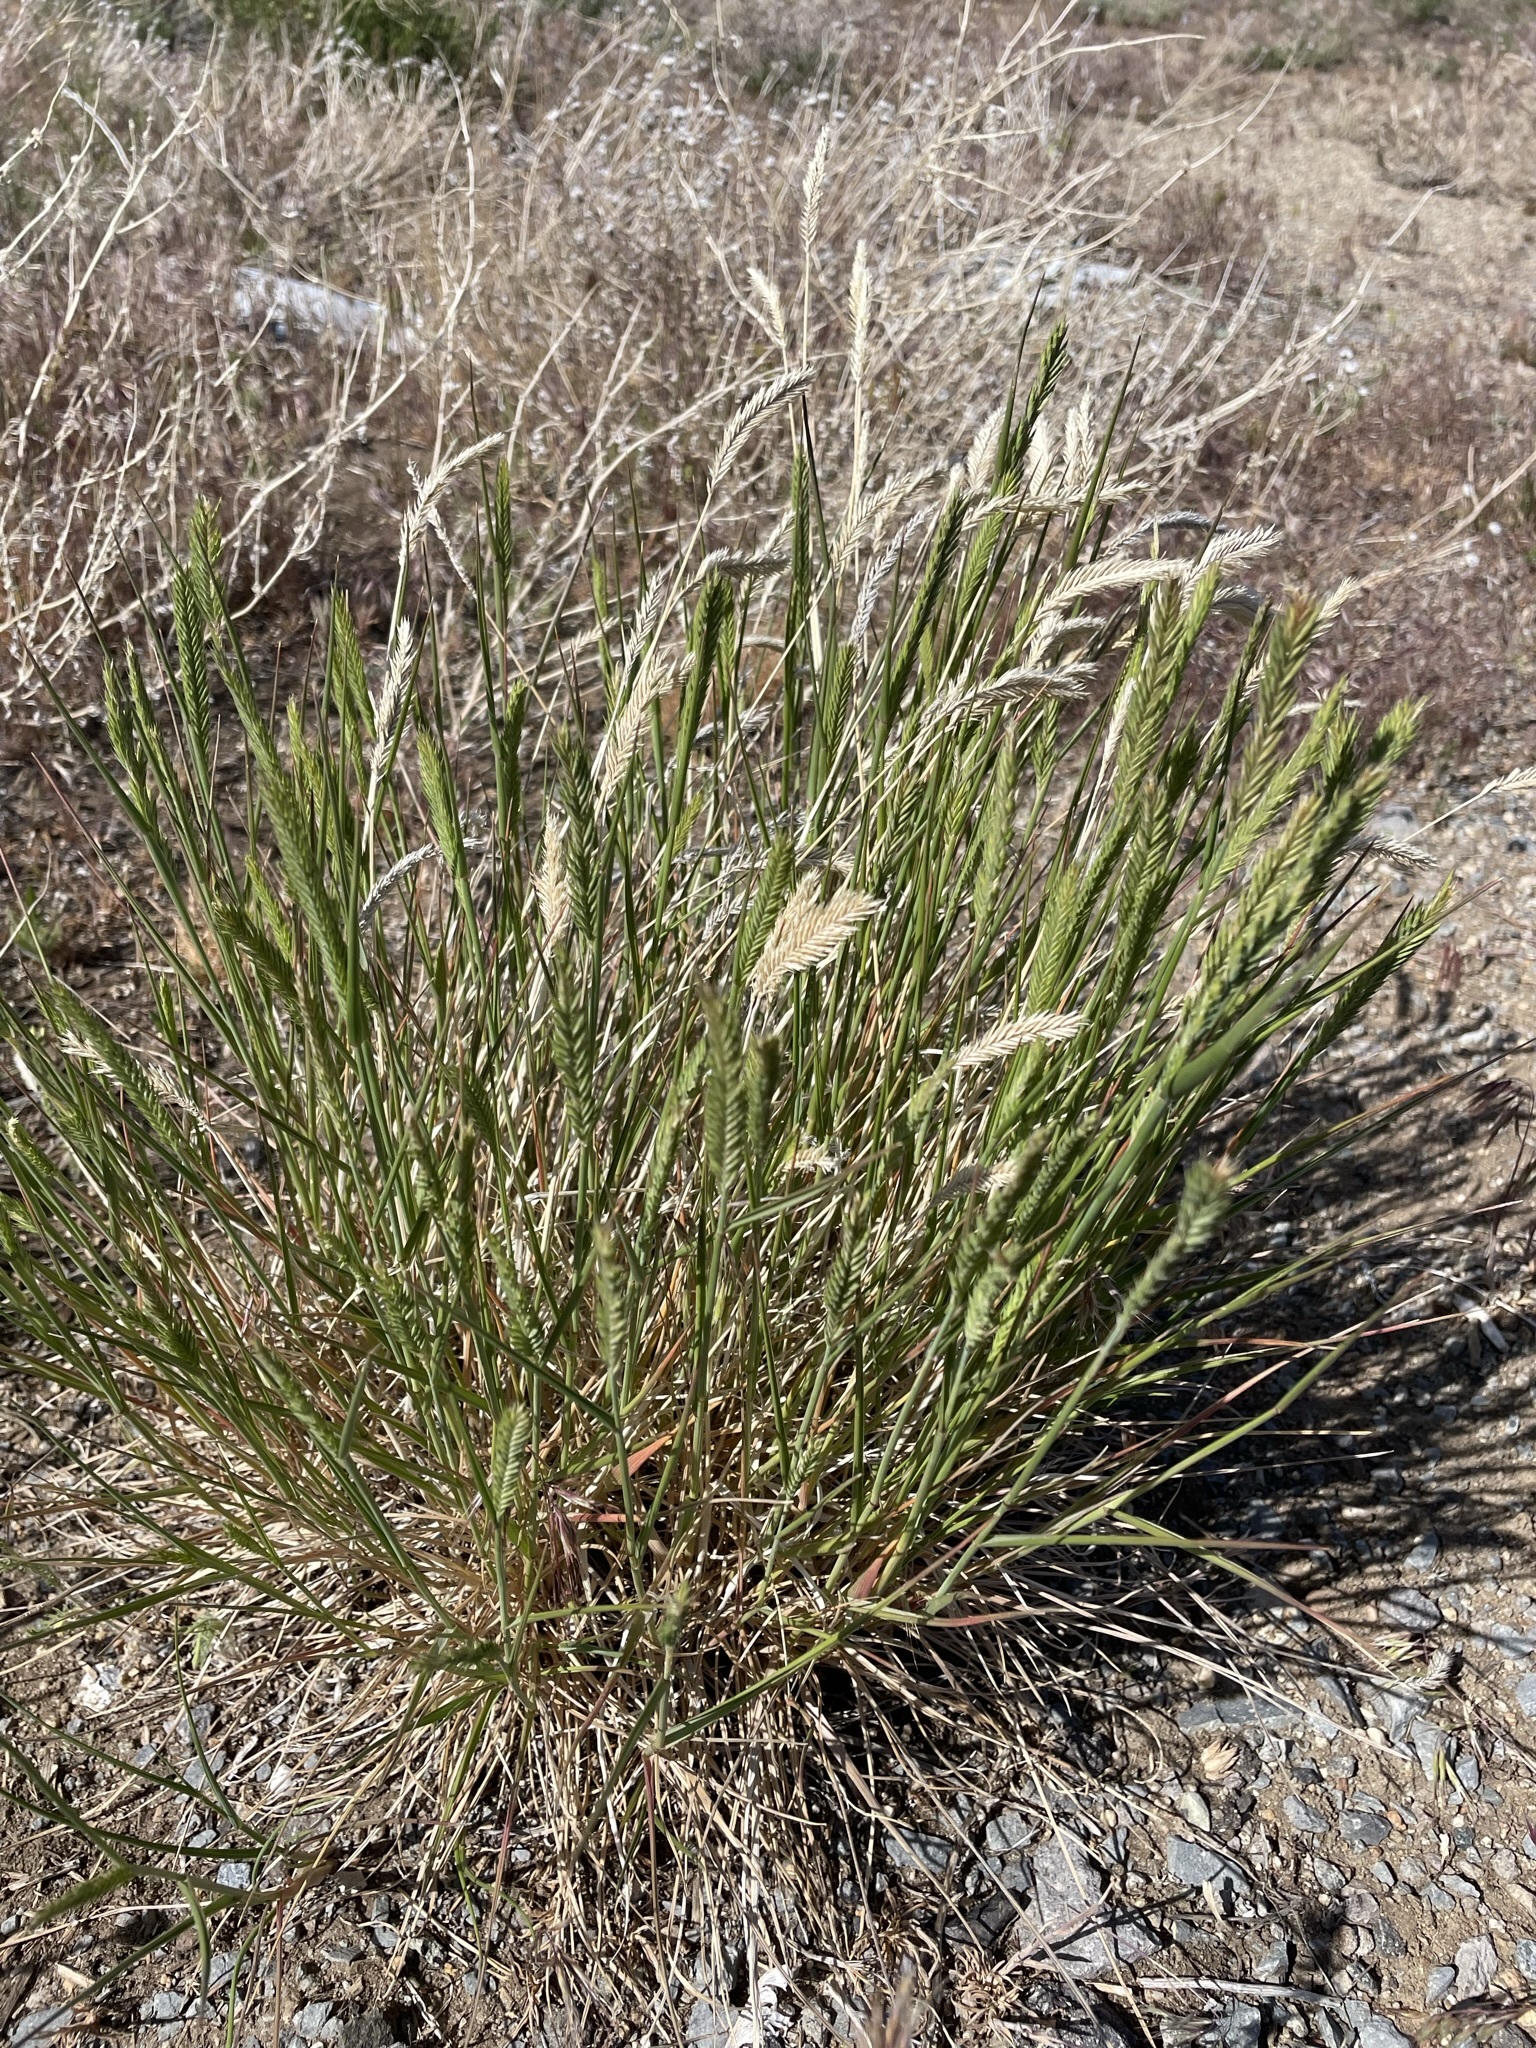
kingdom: Plantae
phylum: Tracheophyta
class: Liliopsida
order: Poales
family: Poaceae
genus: Agropyron
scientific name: Agropyron cristatum
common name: Crested wheatgrass
